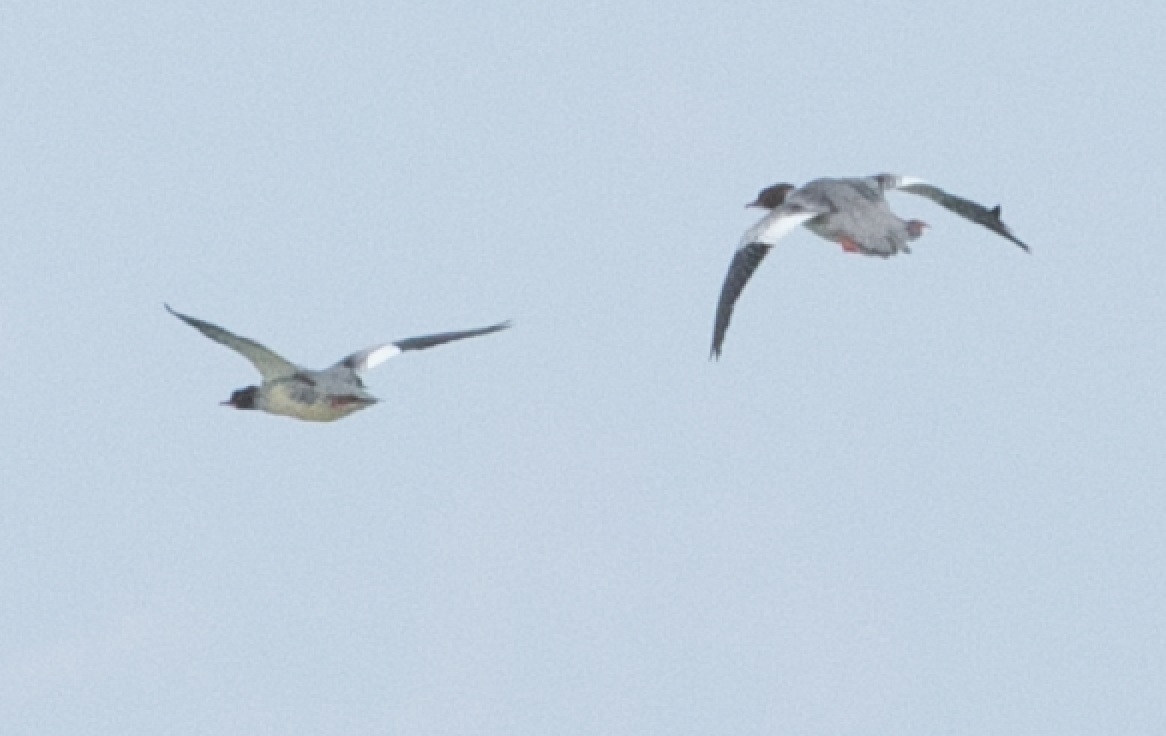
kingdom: Animalia
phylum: Chordata
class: Aves
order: Anseriformes
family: Anatidae
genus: Mergus
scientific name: Mergus merganser
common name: Common merganser
